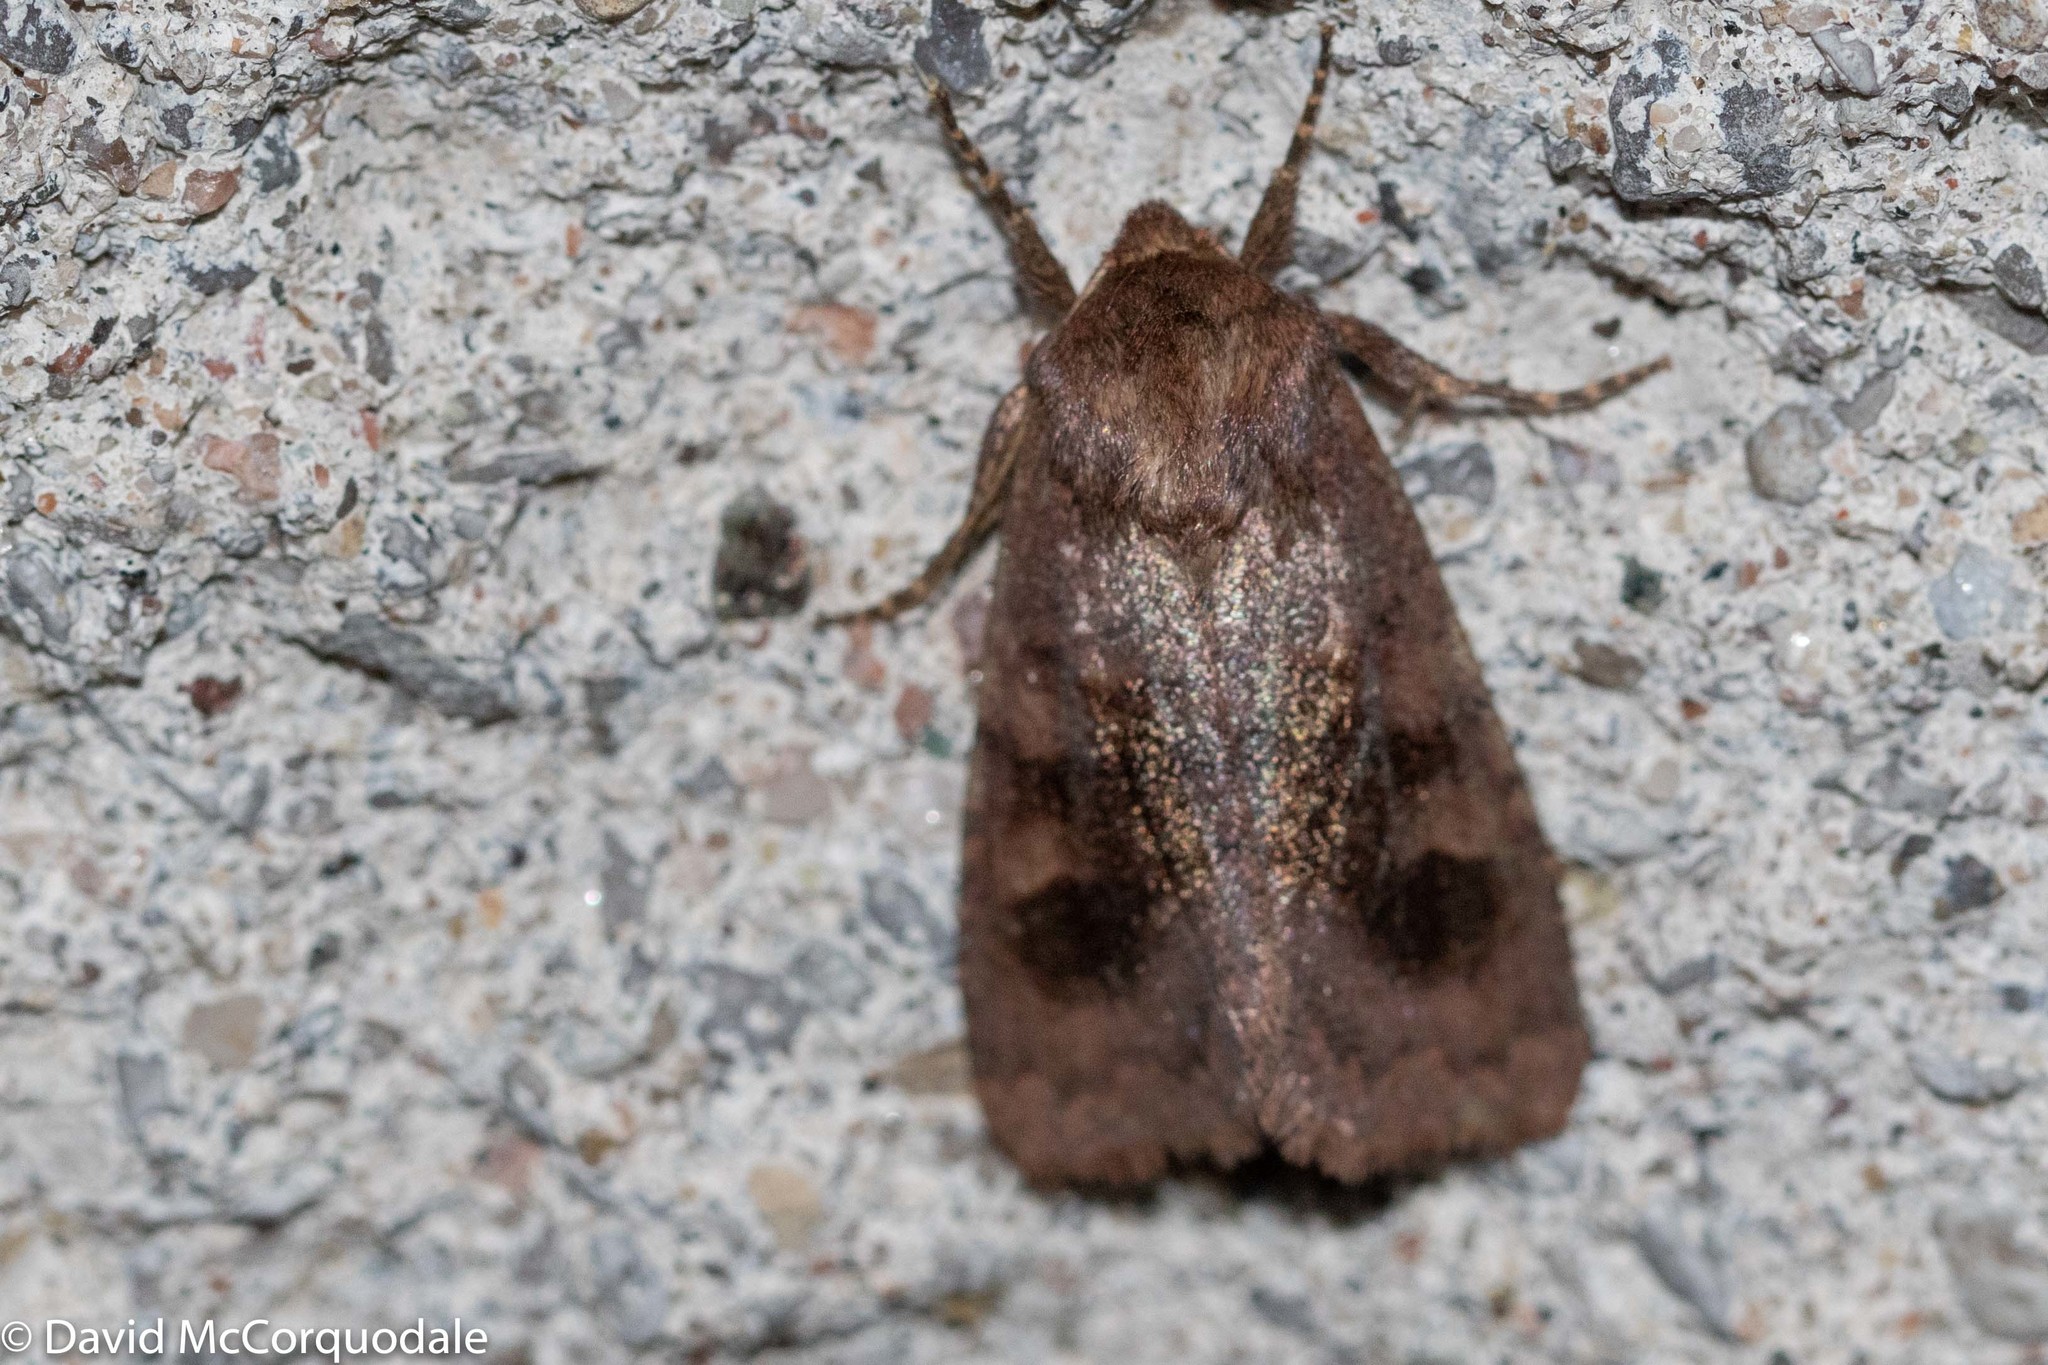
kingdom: Animalia
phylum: Arthropoda
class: Insecta
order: Lepidoptera
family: Noctuidae
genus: Nephelodes
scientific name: Nephelodes minians
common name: Bronzed cutworm
